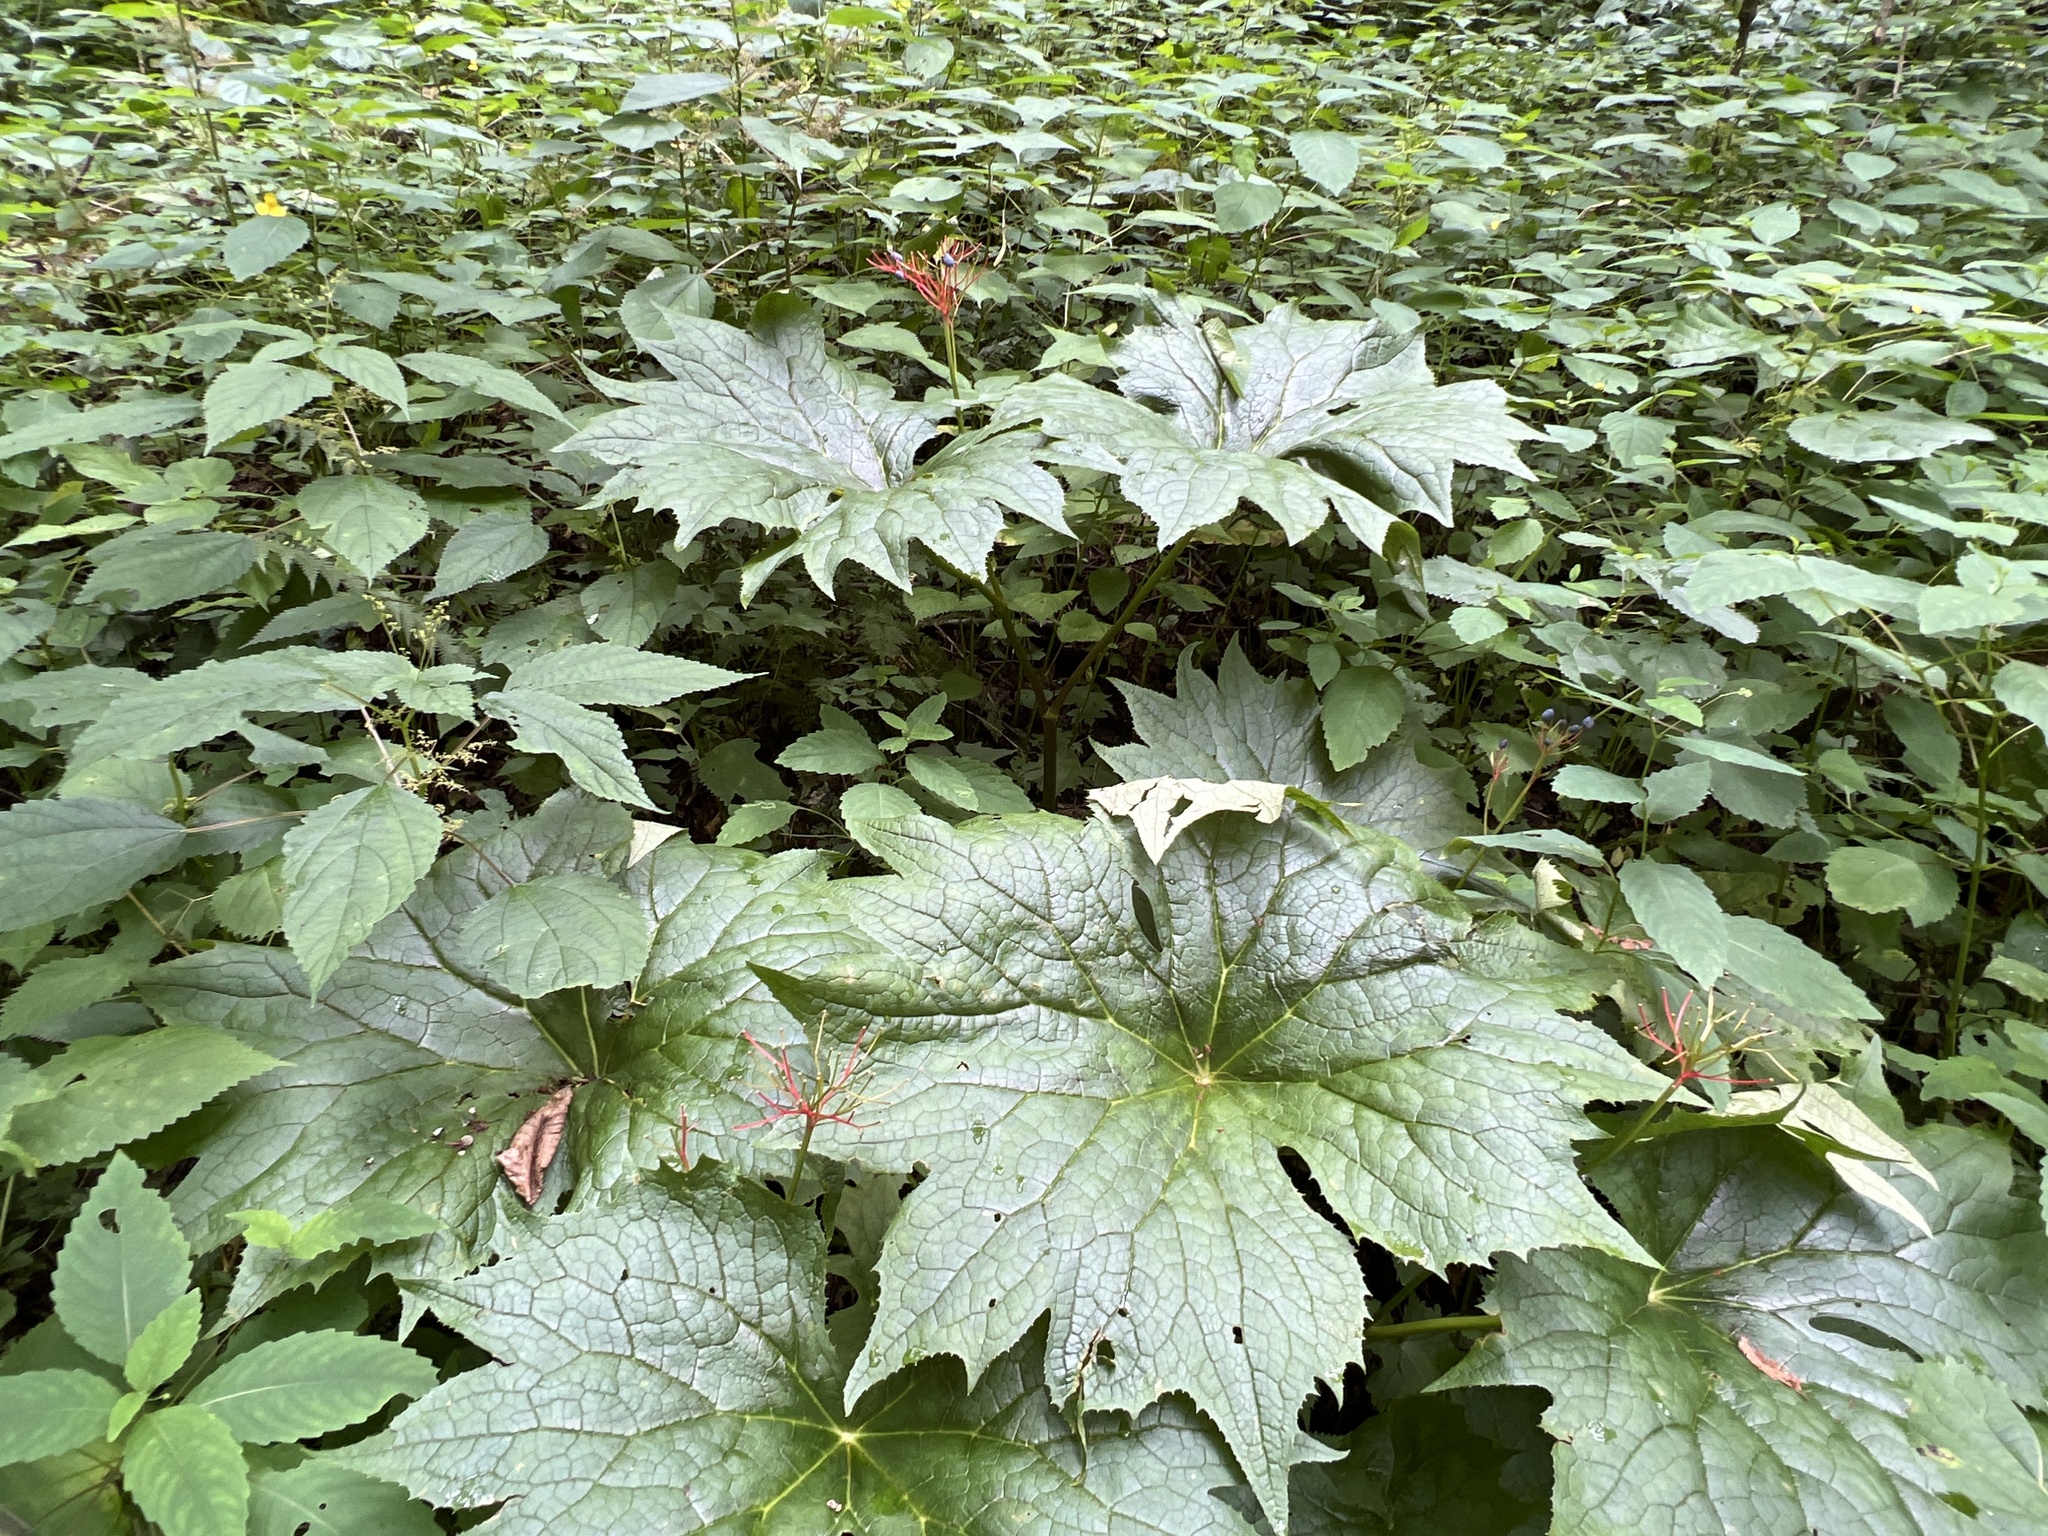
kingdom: Plantae
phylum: Tracheophyta
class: Magnoliopsida
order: Ranunculales
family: Berberidaceae
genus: Diphylleia
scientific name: Diphylleia cymosa
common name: Umbrella-leaf
